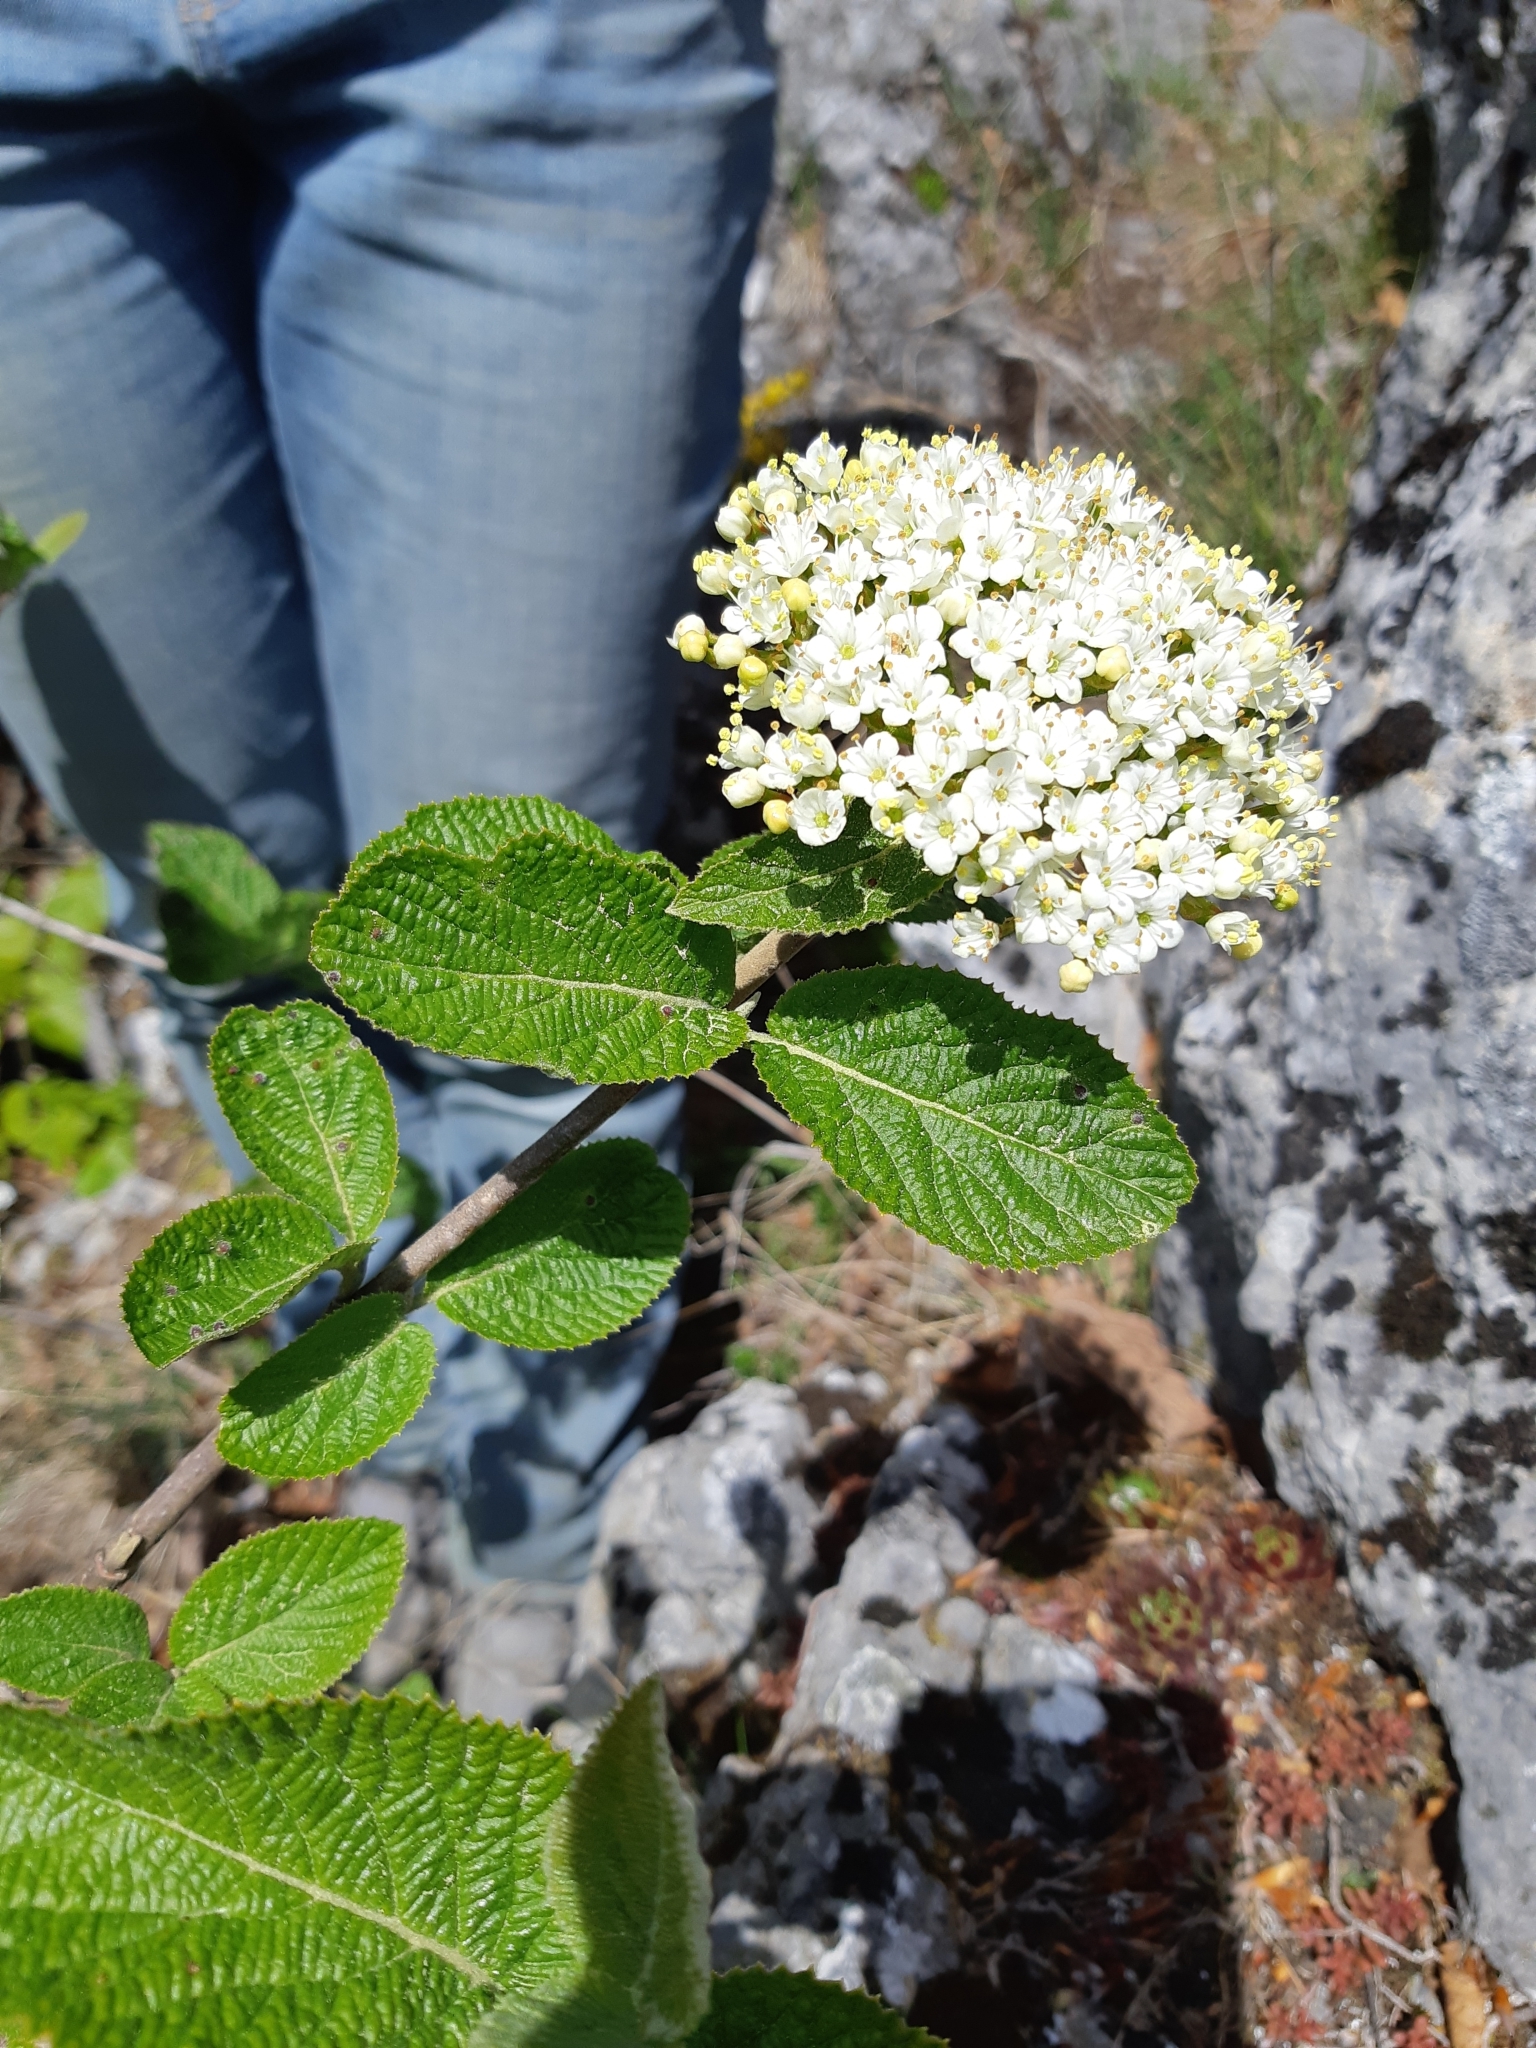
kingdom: Plantae
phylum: Tracheophyta
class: Magnoliopsida
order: Dipsacales
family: Viburnaceae
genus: Viburnum
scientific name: Viburnum lantana
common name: Wayfaring tree
